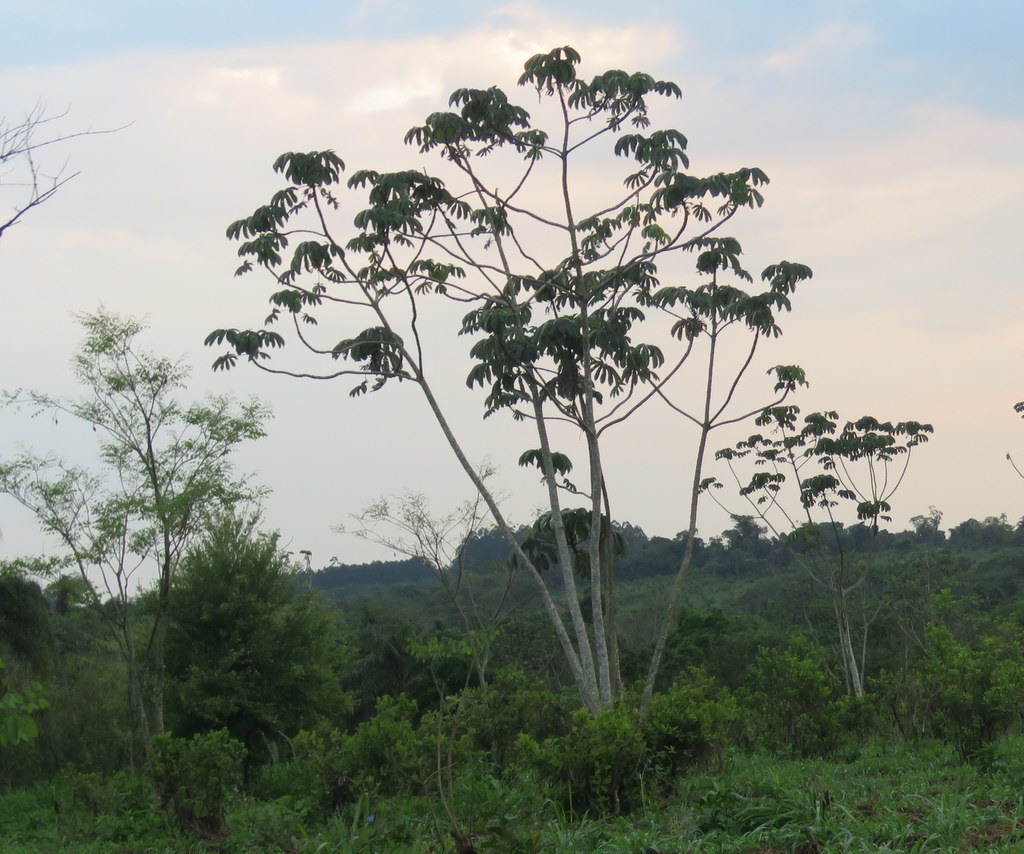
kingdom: Plantae
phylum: Tracheophyta
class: Magnoliopsida
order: Rosales
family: Urticaceae
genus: Cecropia
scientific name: Cecropia pachystachya
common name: Ambay pumpwood
